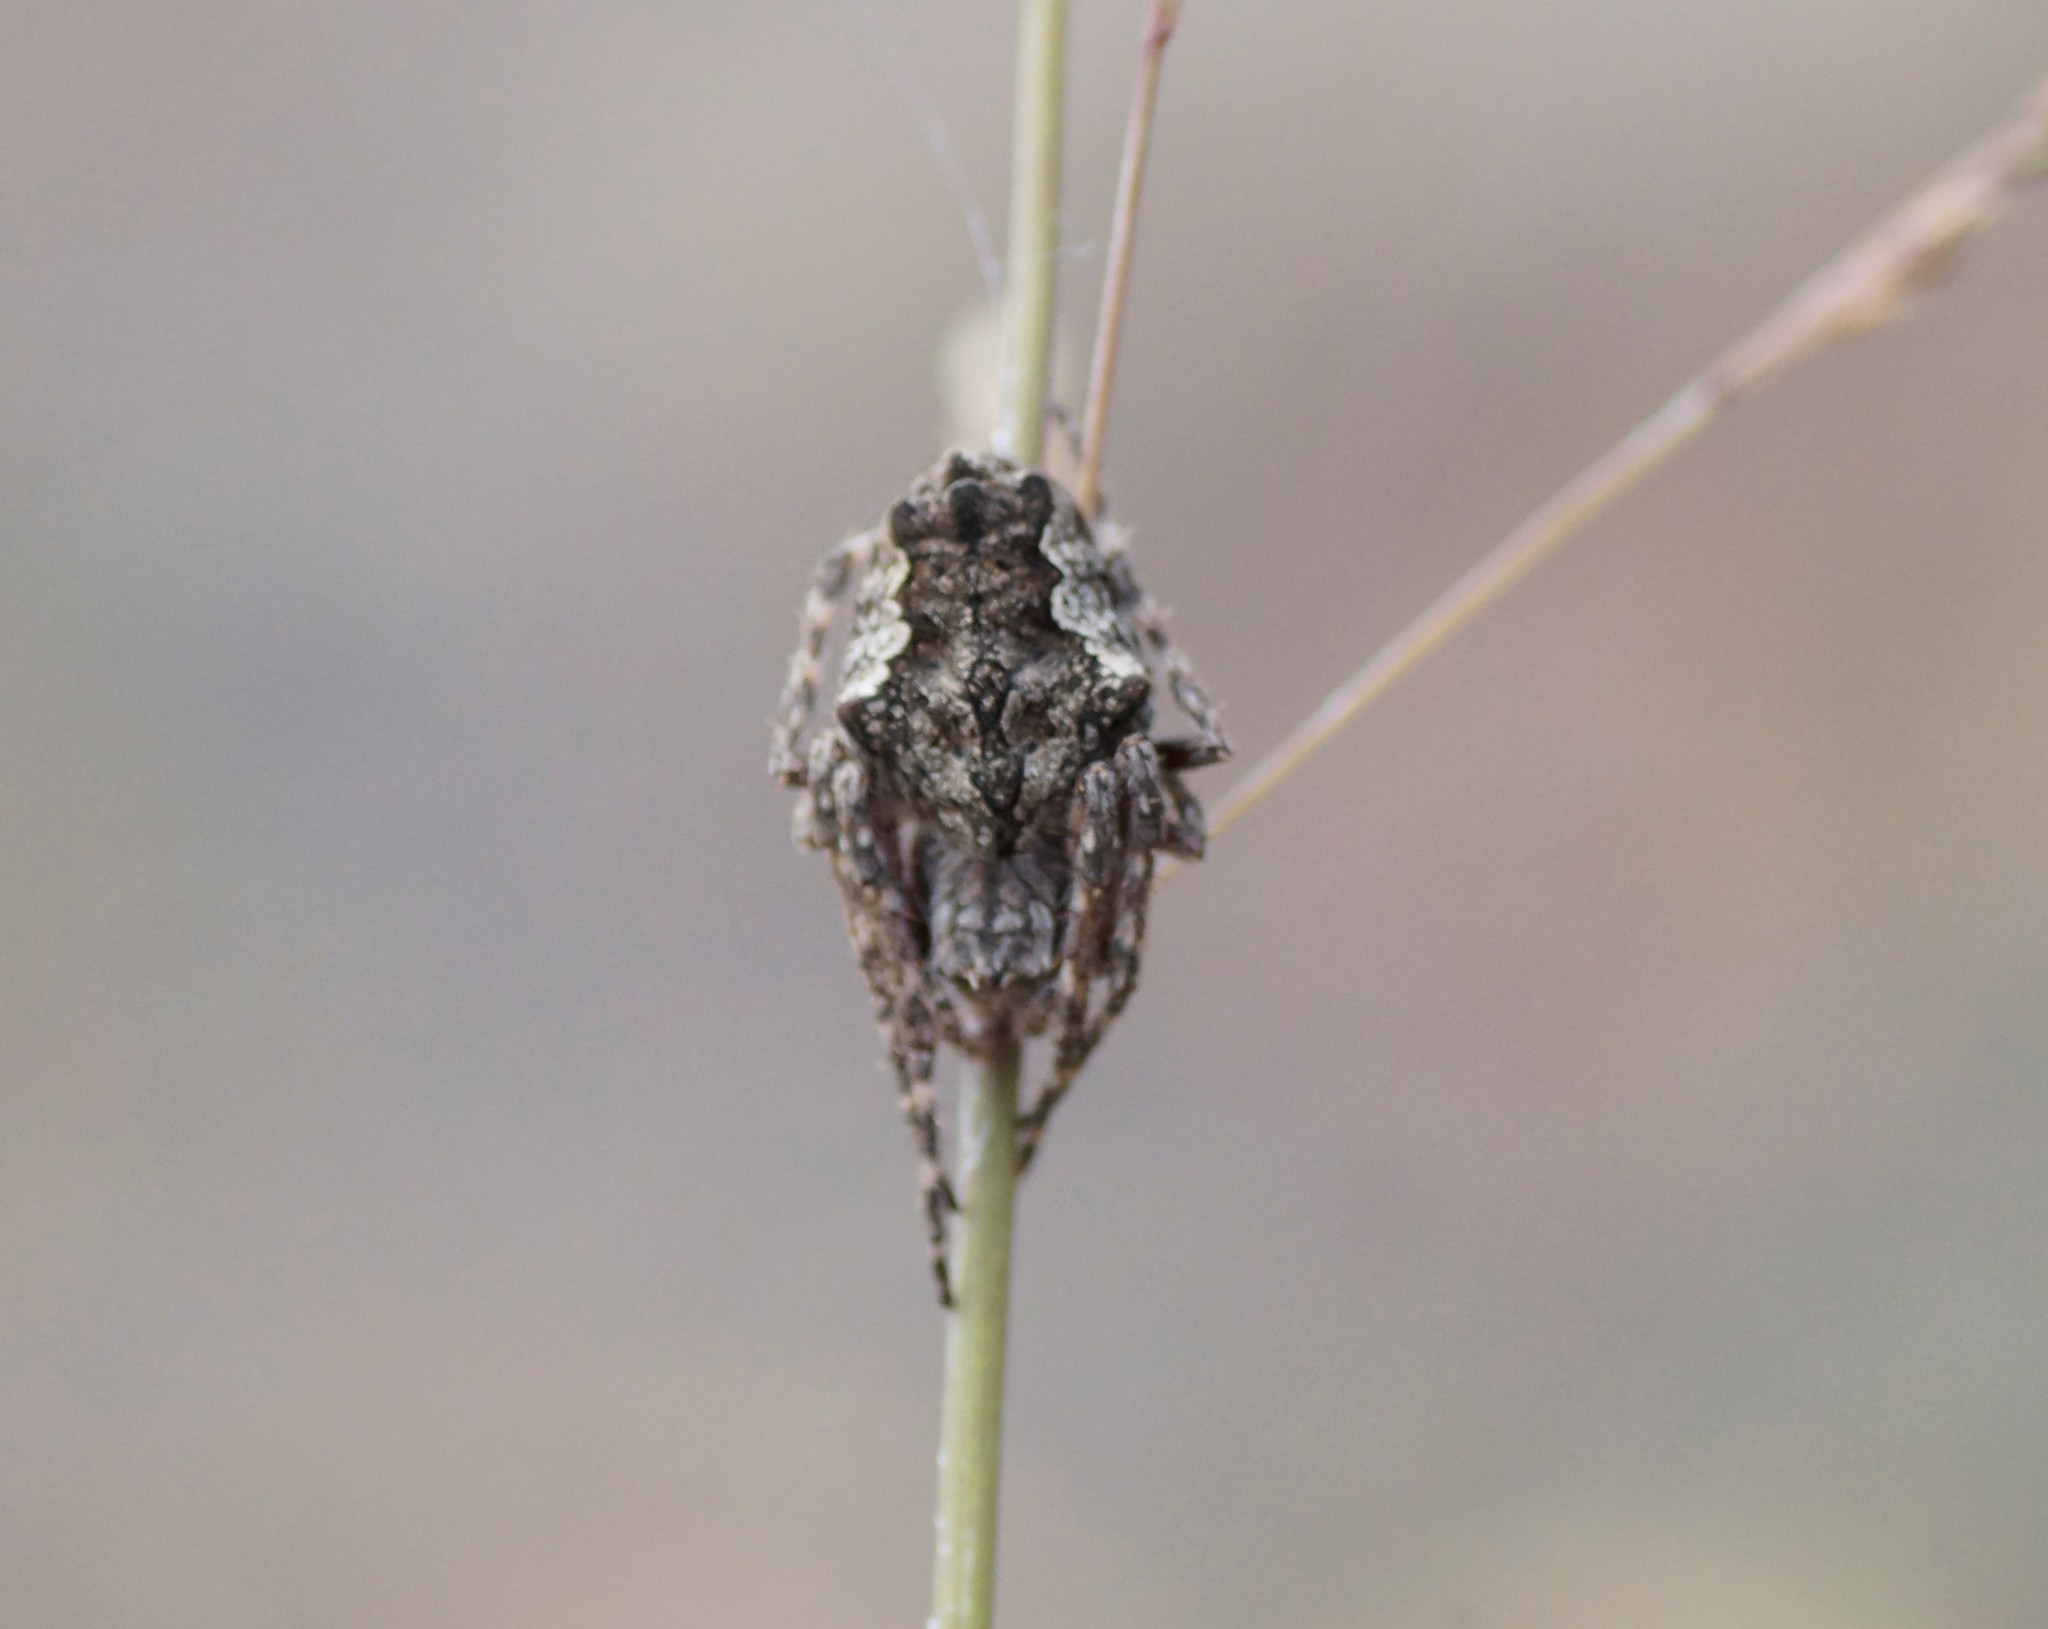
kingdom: Animalia
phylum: Arthropoda
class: Arachnida
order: Araneae
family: Araneidae
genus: Eriophora
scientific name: Eriophora pustulosa
